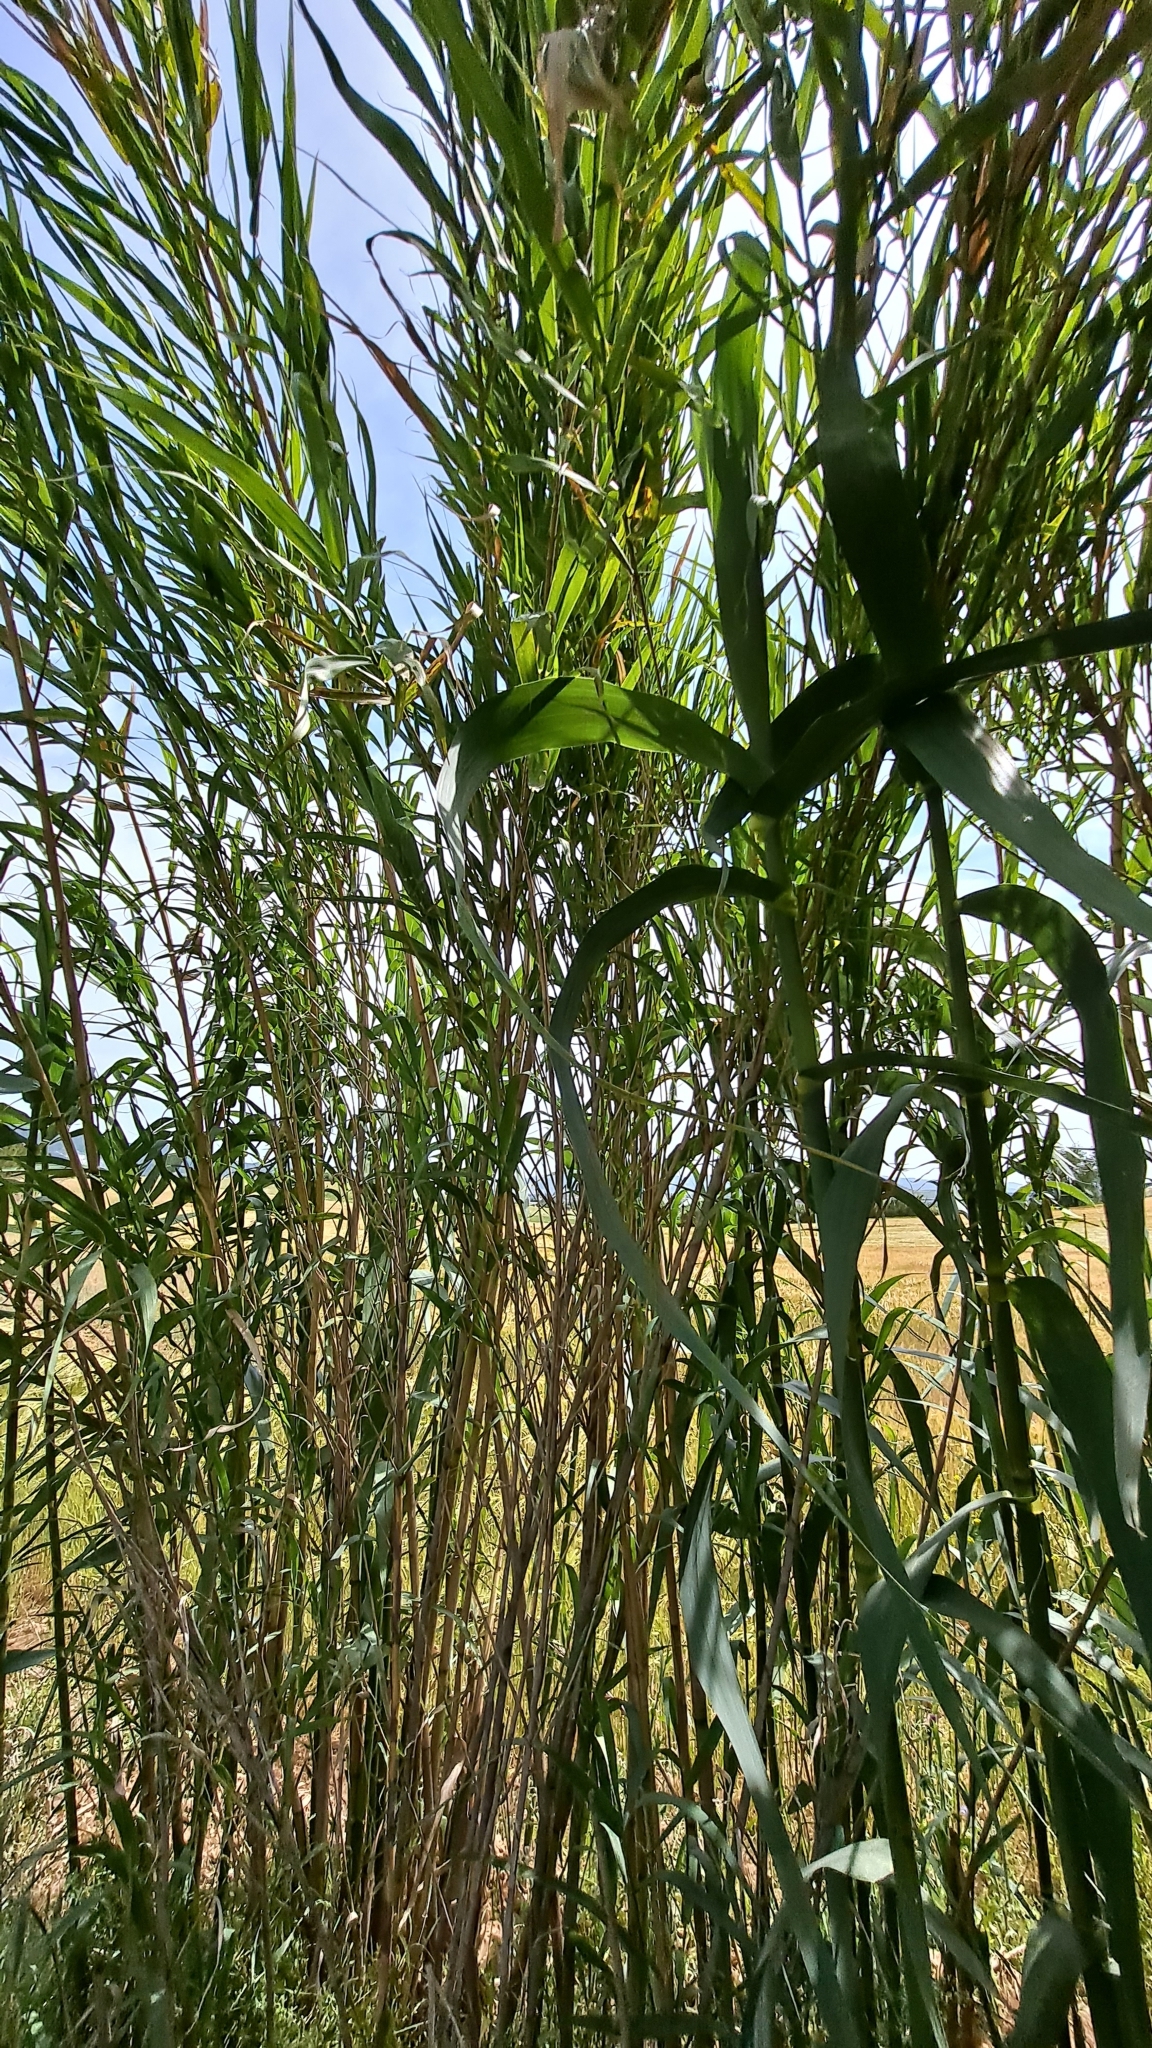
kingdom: Plantae
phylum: Tracheophyta
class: Liliopsida
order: Poales
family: Poaceae
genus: Arundo
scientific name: Arundo donax
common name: Giant reed
